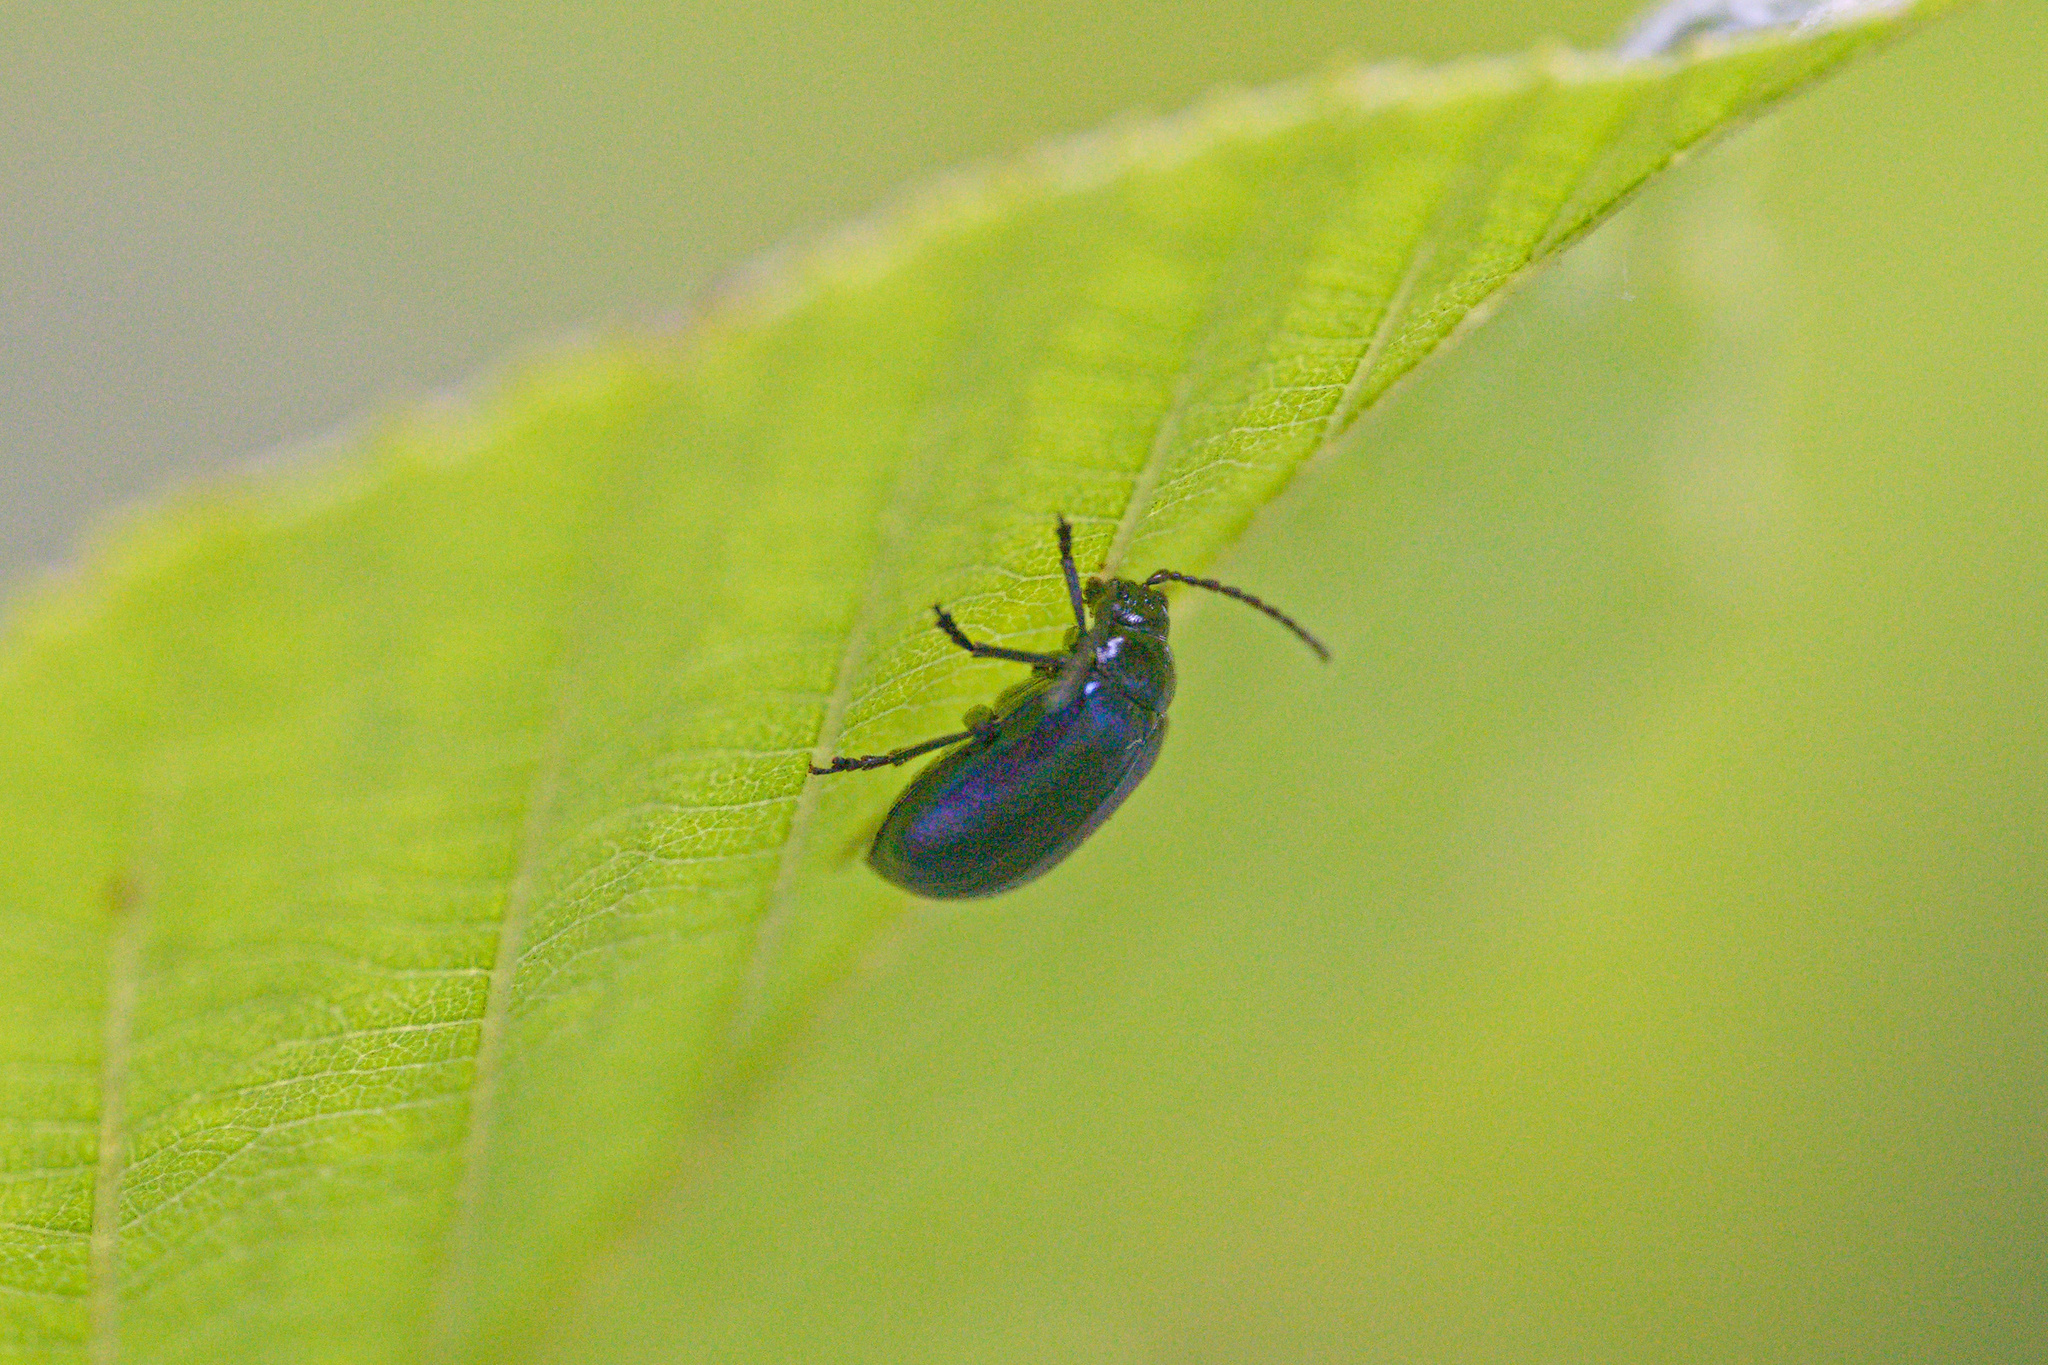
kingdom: Animalia
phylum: Arthropoda
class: Insecta
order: Coleoptera
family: Chrysomelidae
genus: Agelastica
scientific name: Agelastica alni
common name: Alder leaf beetle
